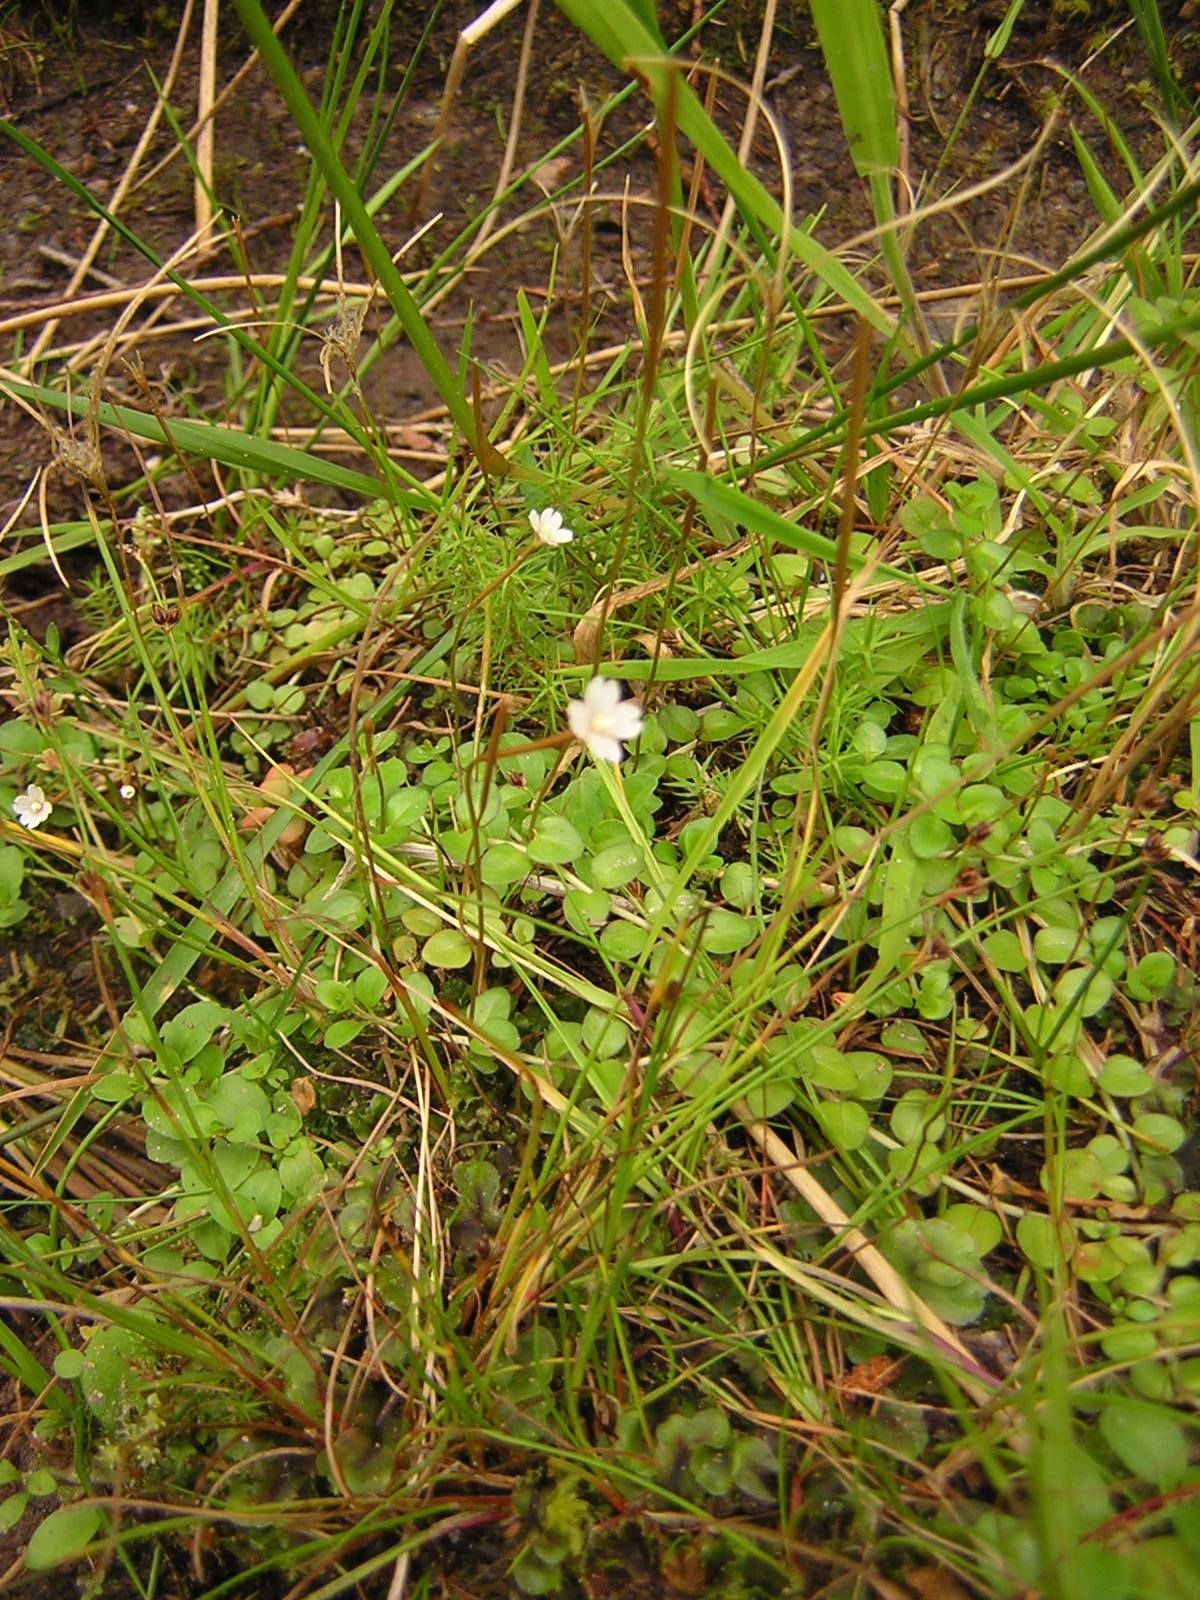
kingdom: Plantae
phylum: Tracheophyta
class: Magnoliopsida
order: Myrtales
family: Onagraceae
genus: Epilobium
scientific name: Epilobium brunnescens
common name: New zealand willowherb
